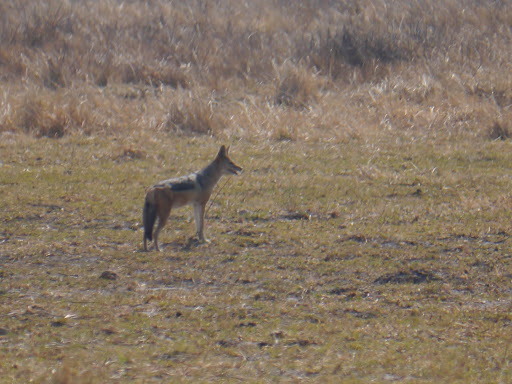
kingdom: Animalia
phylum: Chordata
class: Mammalia
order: Carnivora
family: Canidae
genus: Lupulella
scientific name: Lupulella
